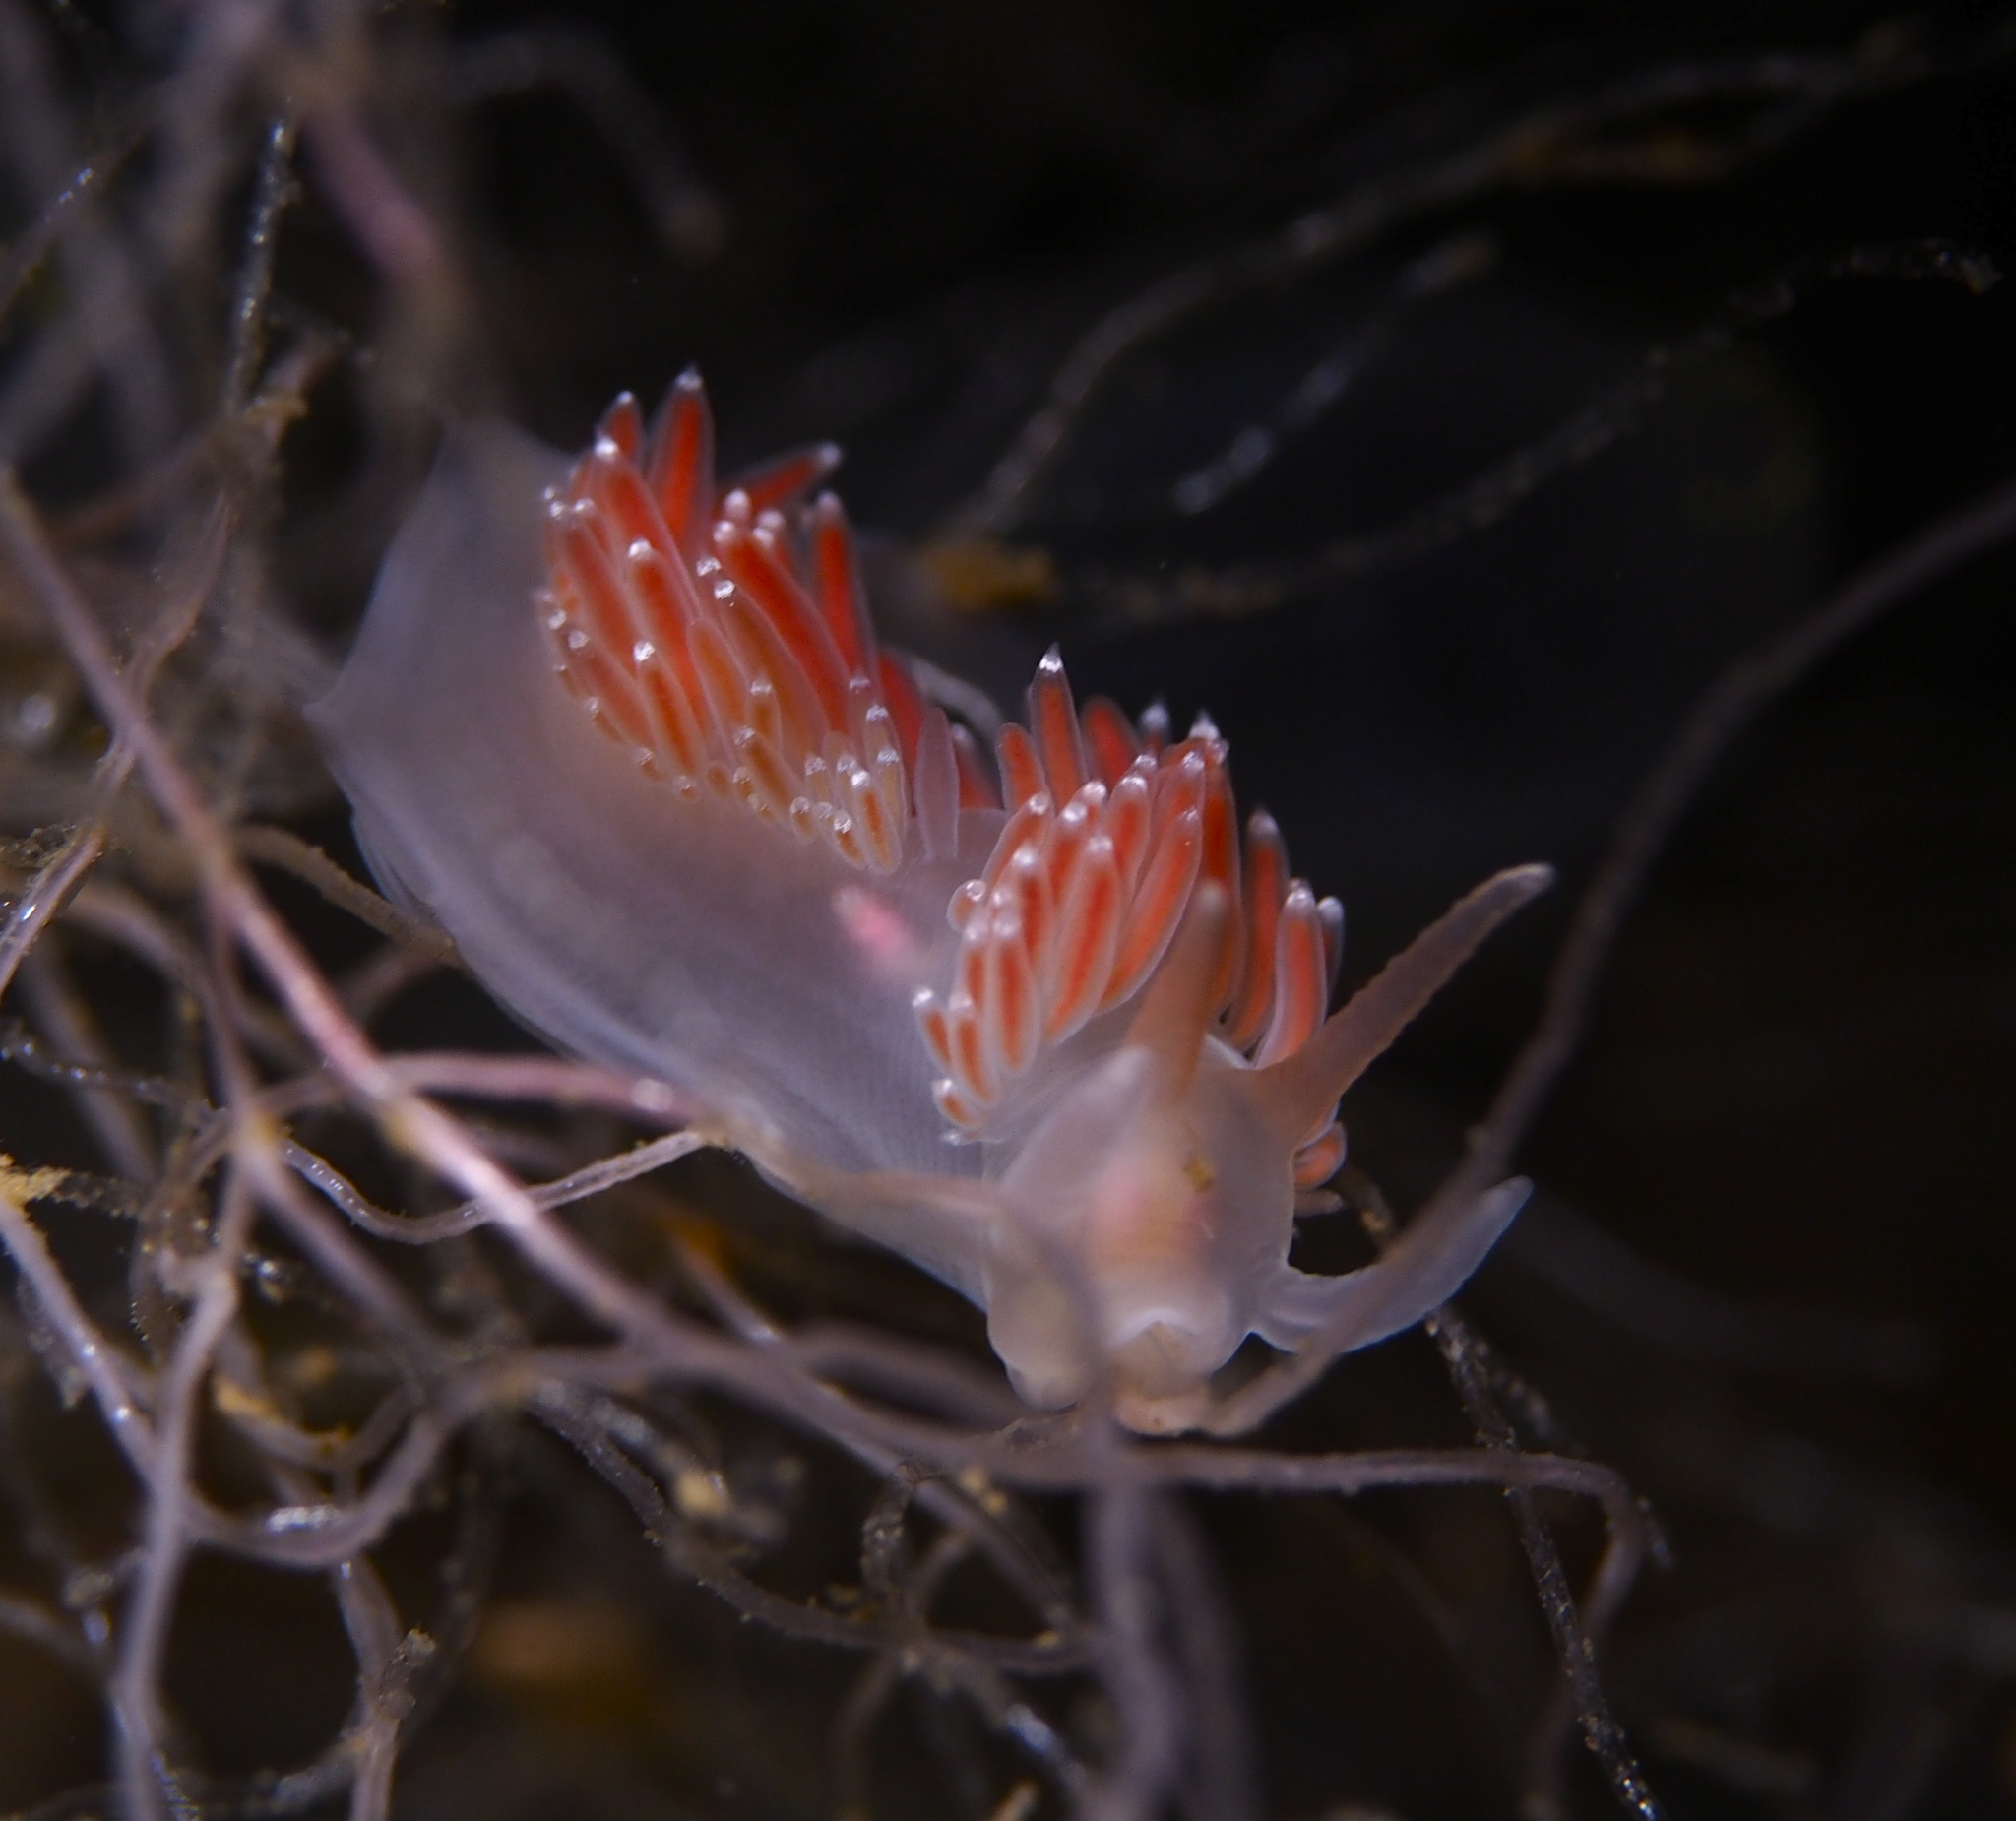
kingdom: Animalia
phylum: Mollusca
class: Gastropoda
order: Nudibranchia
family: Coryphellidae
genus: Coryphella
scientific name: Coryphella verrucosa
